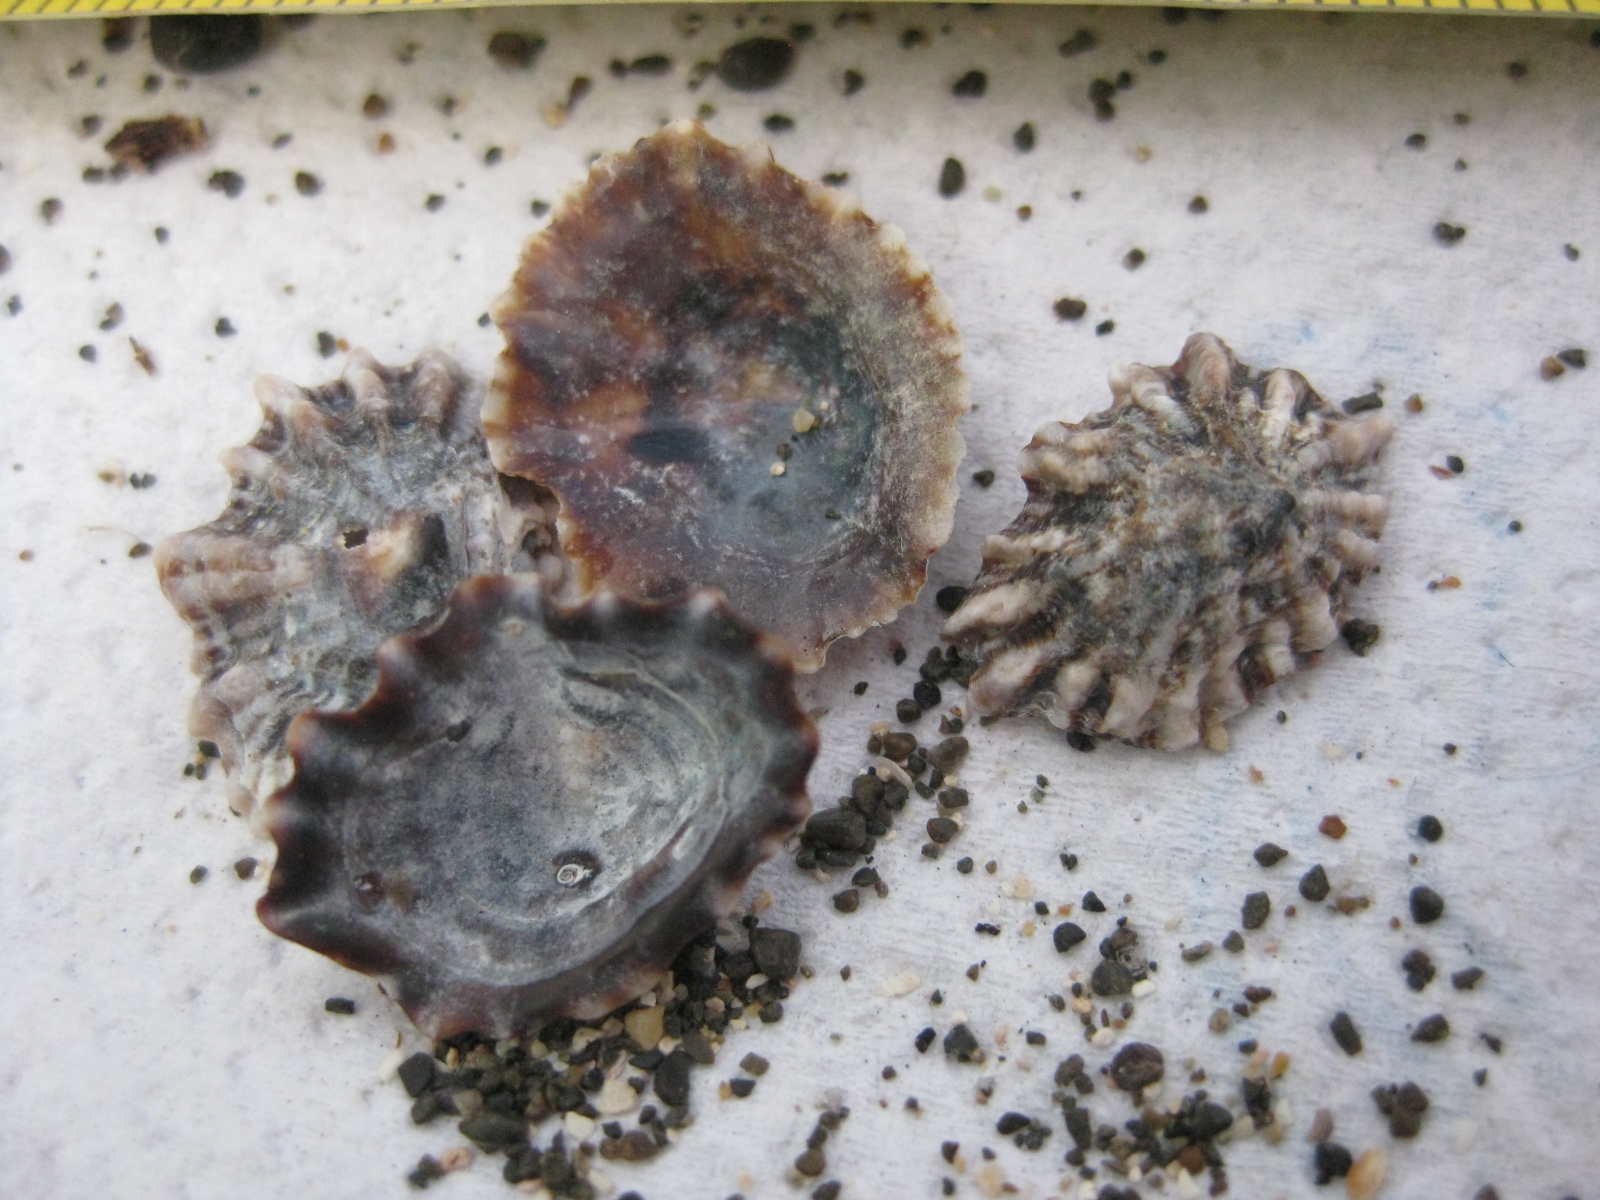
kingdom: Animalia
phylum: Mollusca
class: Gastropoda
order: Siphonariida
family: Siphonariidae
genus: Siphonaria
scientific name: Siphonaria australis
